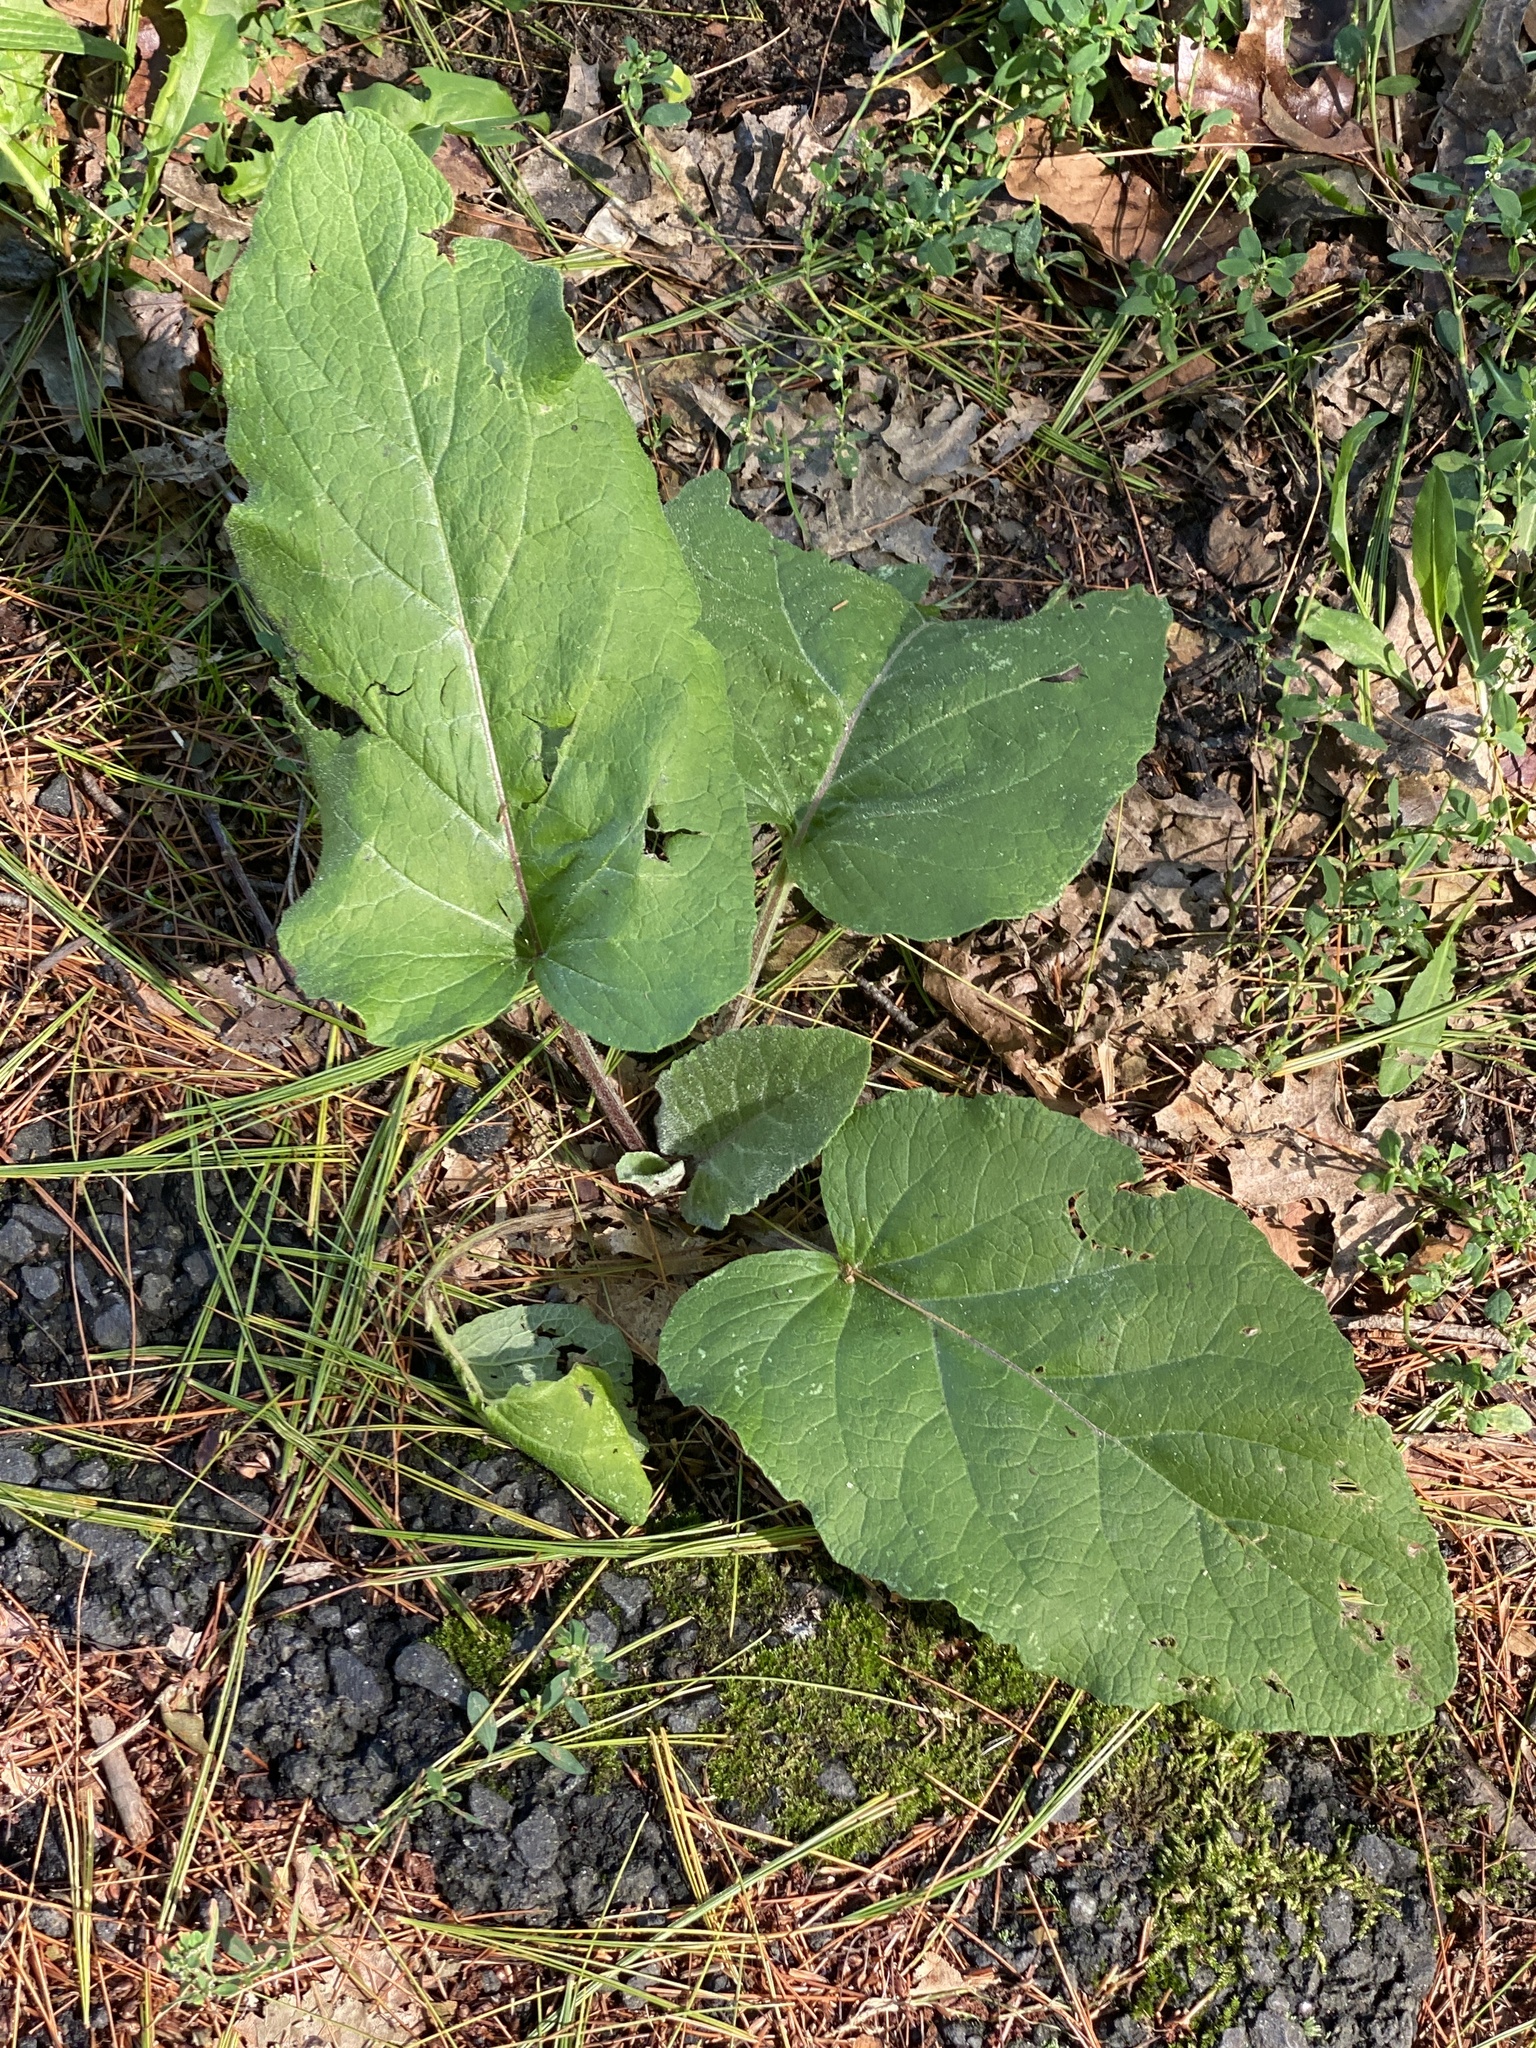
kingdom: Plantae
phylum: Tracheophyta
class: Magnoliopsida
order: Asterales
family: Asteraceae
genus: Arctium
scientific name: Arctium minus
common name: Lesser burdock
